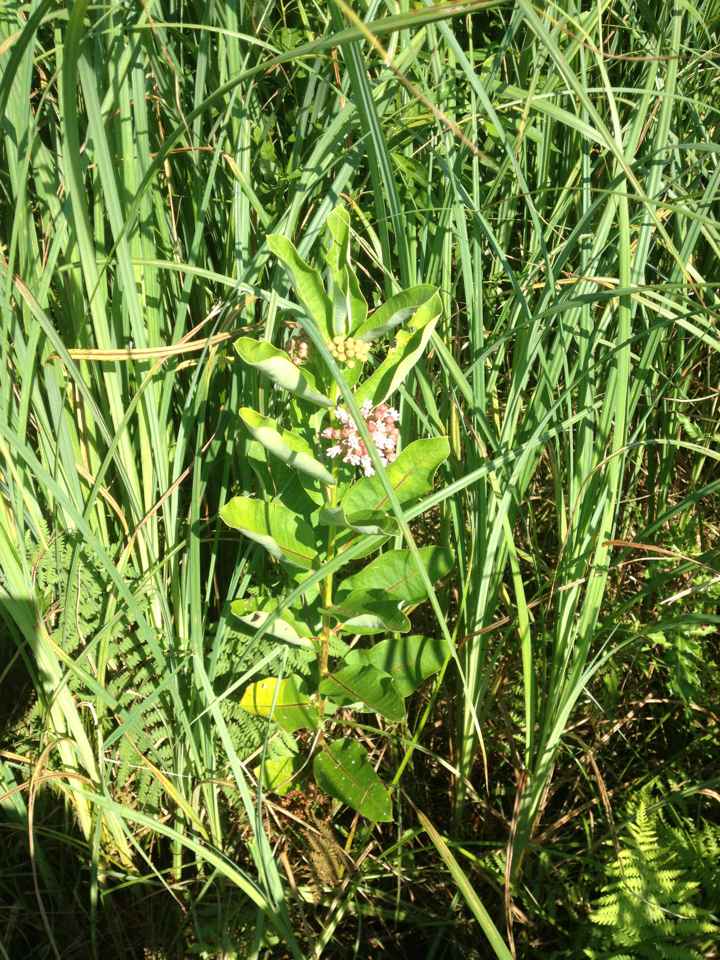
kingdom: Plantae
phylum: Tracheophyta
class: Magnoliopsida
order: Gentianales
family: Apocynaceae
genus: Asclepias
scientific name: Asclepias syriaca
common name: Common milkweed
